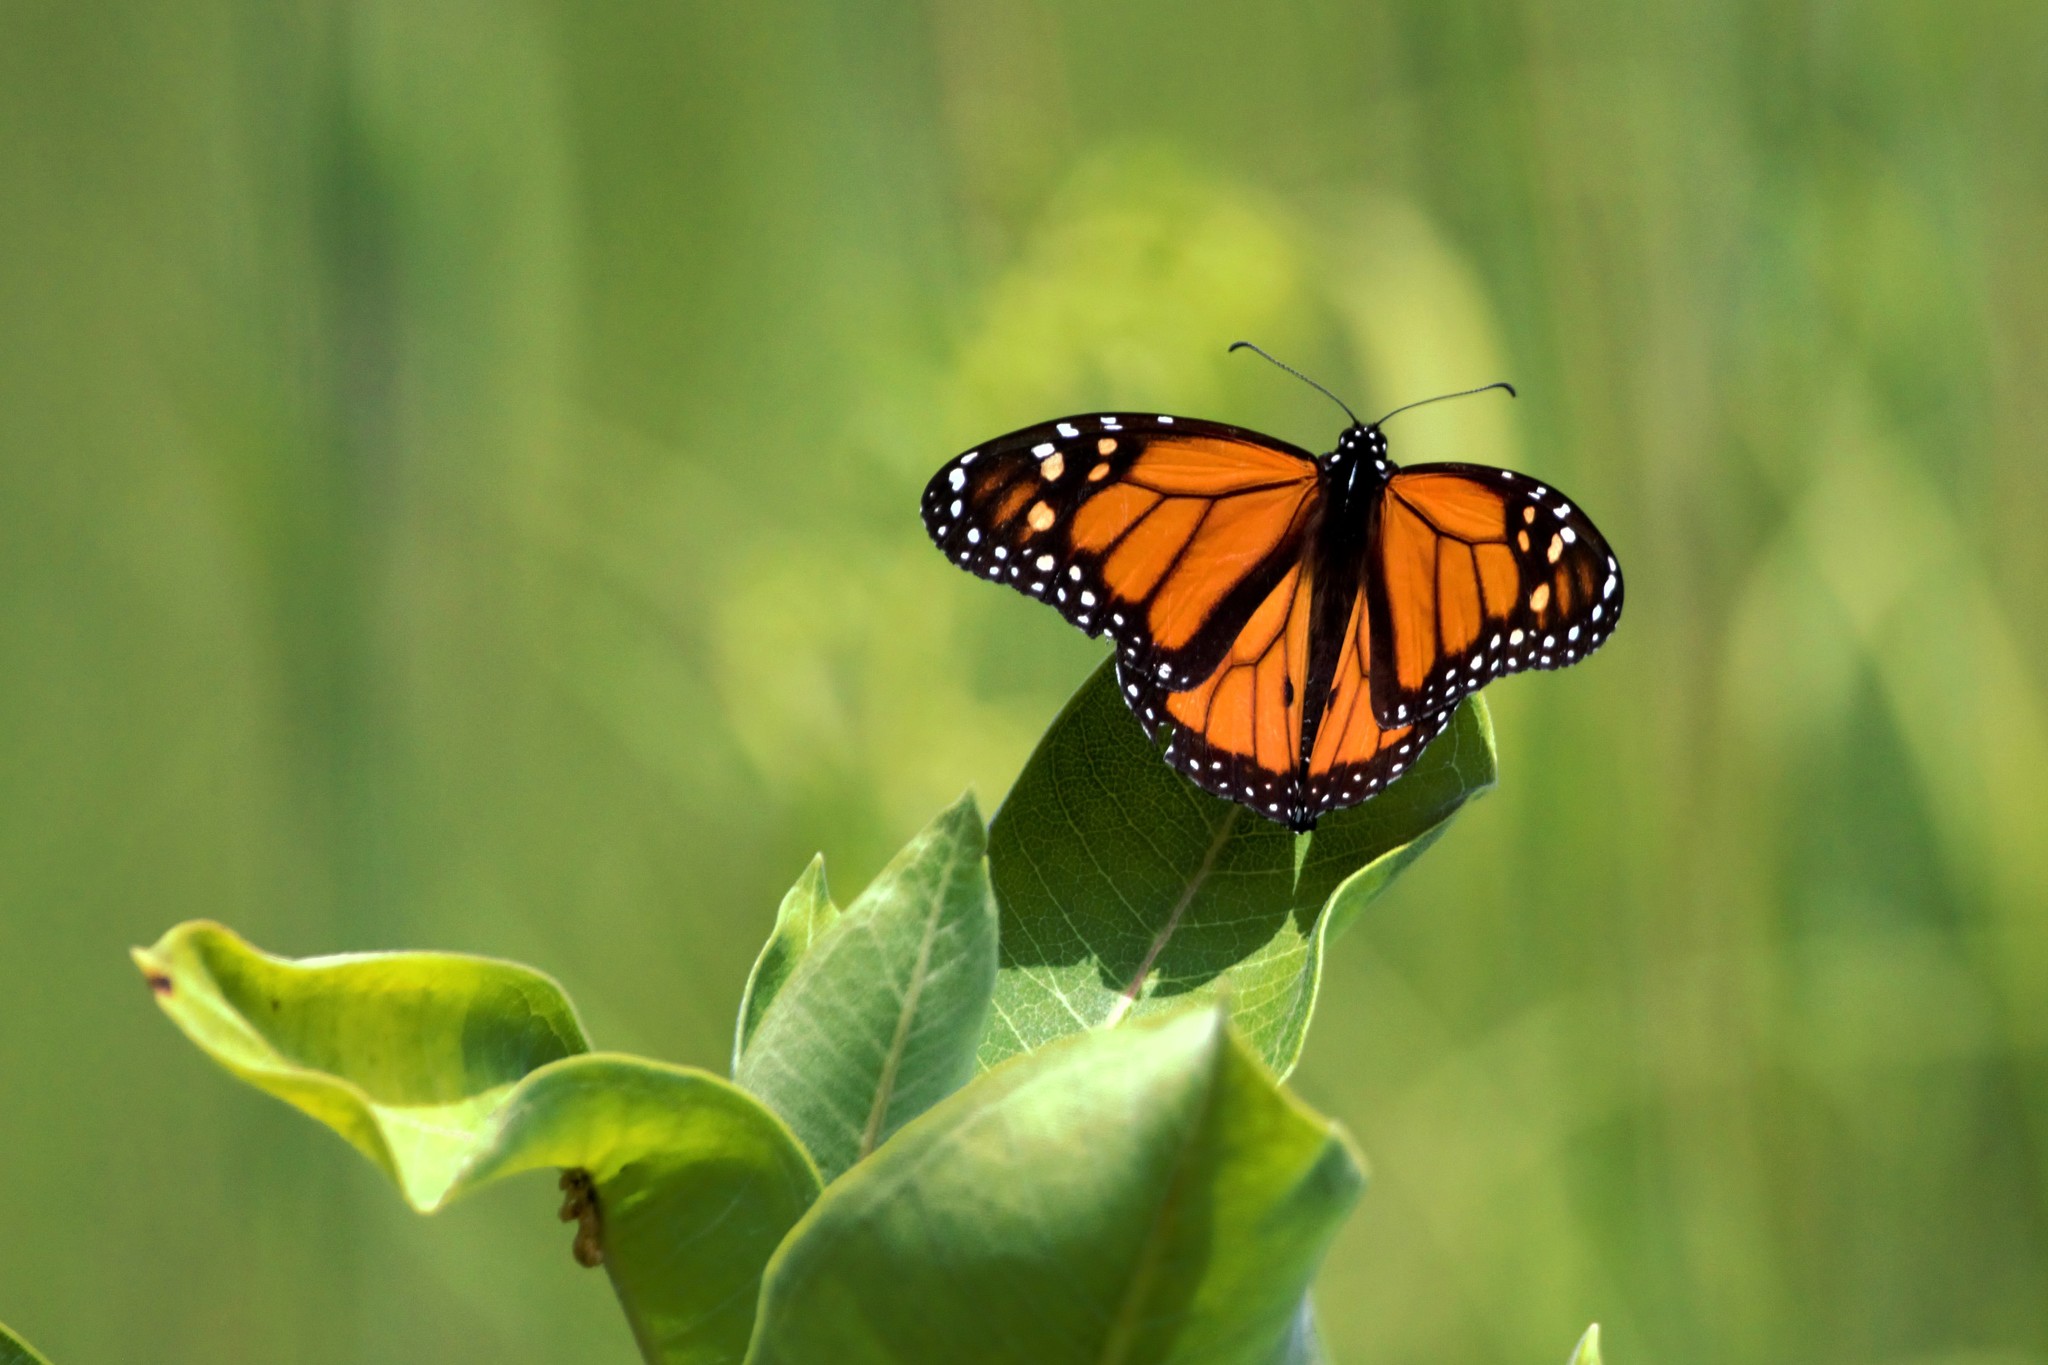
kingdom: Animalia
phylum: Arthropoda
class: Insecta
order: Lepidoptera
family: Nymphalidae
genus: Danaus
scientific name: Danaus plexippus
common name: Monarch
